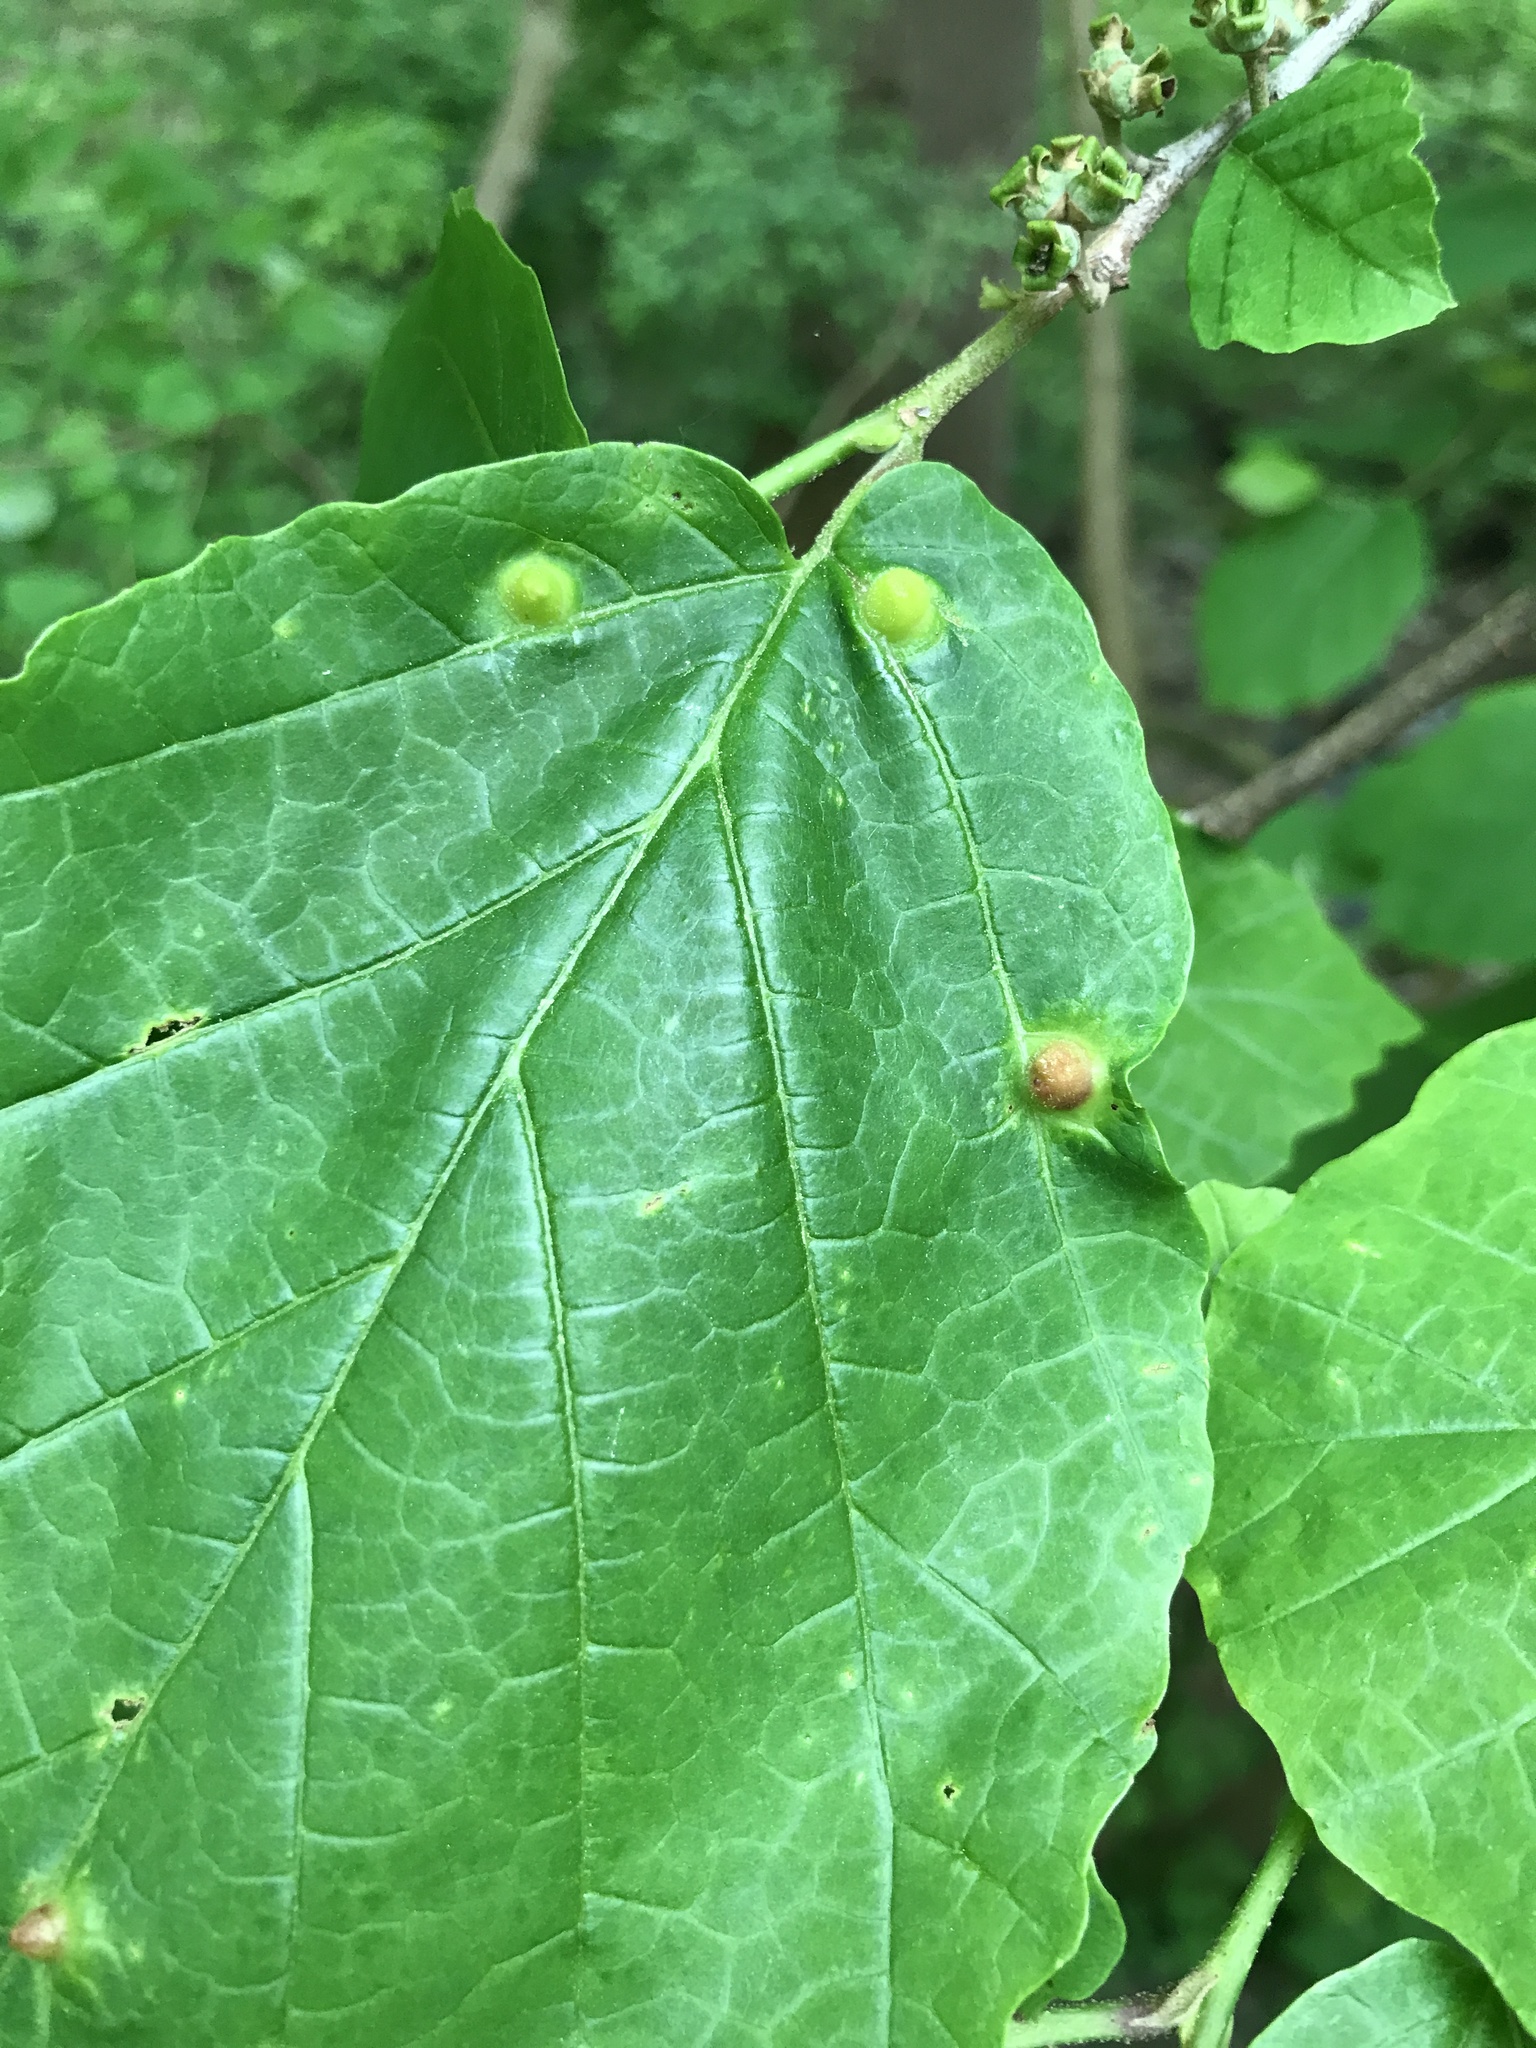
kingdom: Animalia
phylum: Arthropoda
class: Insecta
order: Hemiptera
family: Aphididae
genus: Hormaphis
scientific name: Hormaphis hamamelidis
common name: Witch-hazel cone gall aphid
